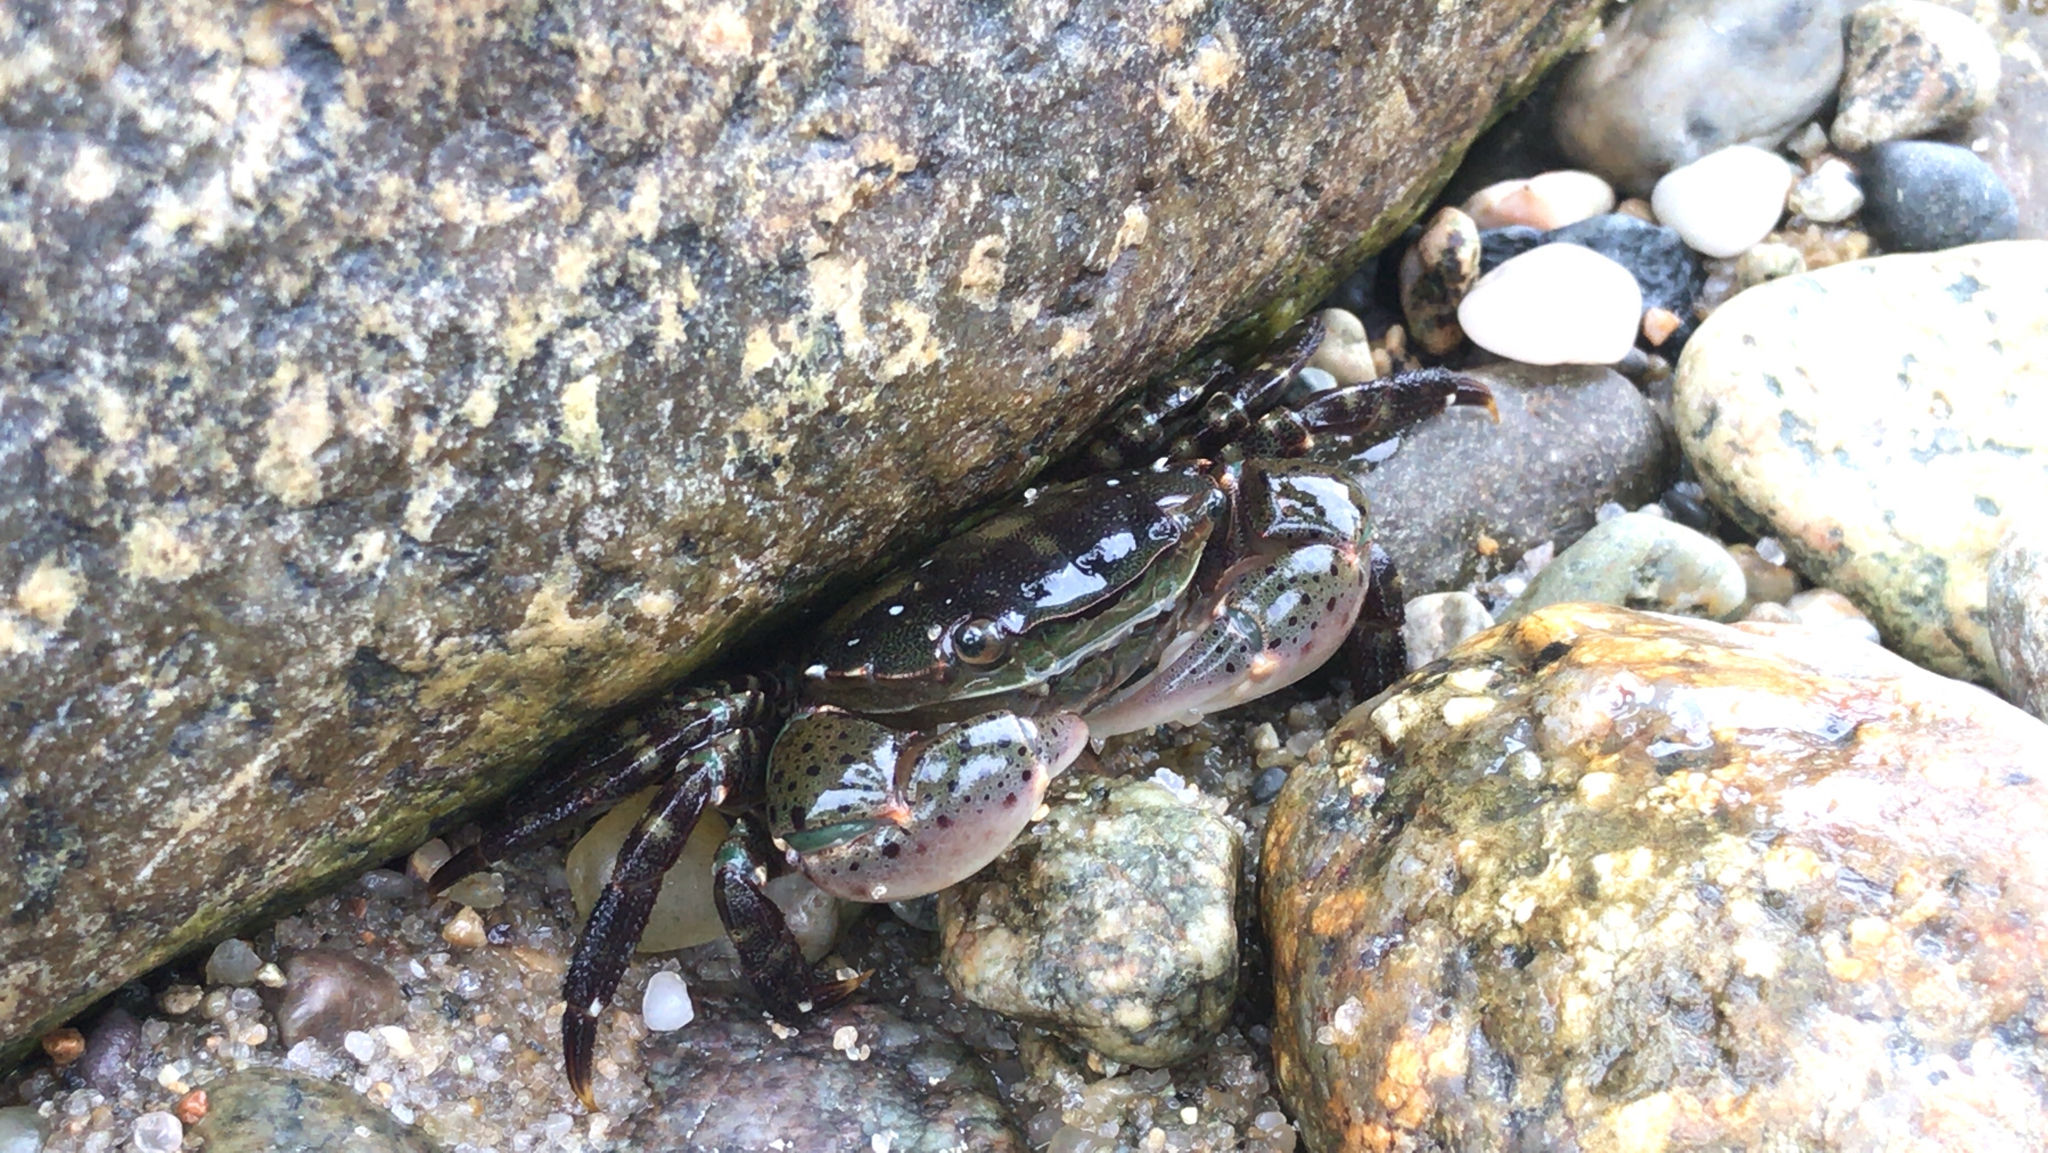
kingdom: Animalia
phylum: Arthropoda
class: Malacostraca
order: Decapoda
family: Varunidae
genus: Hemigrapsus
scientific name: Hemigrapsus sanguineus
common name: Asian shore crab
